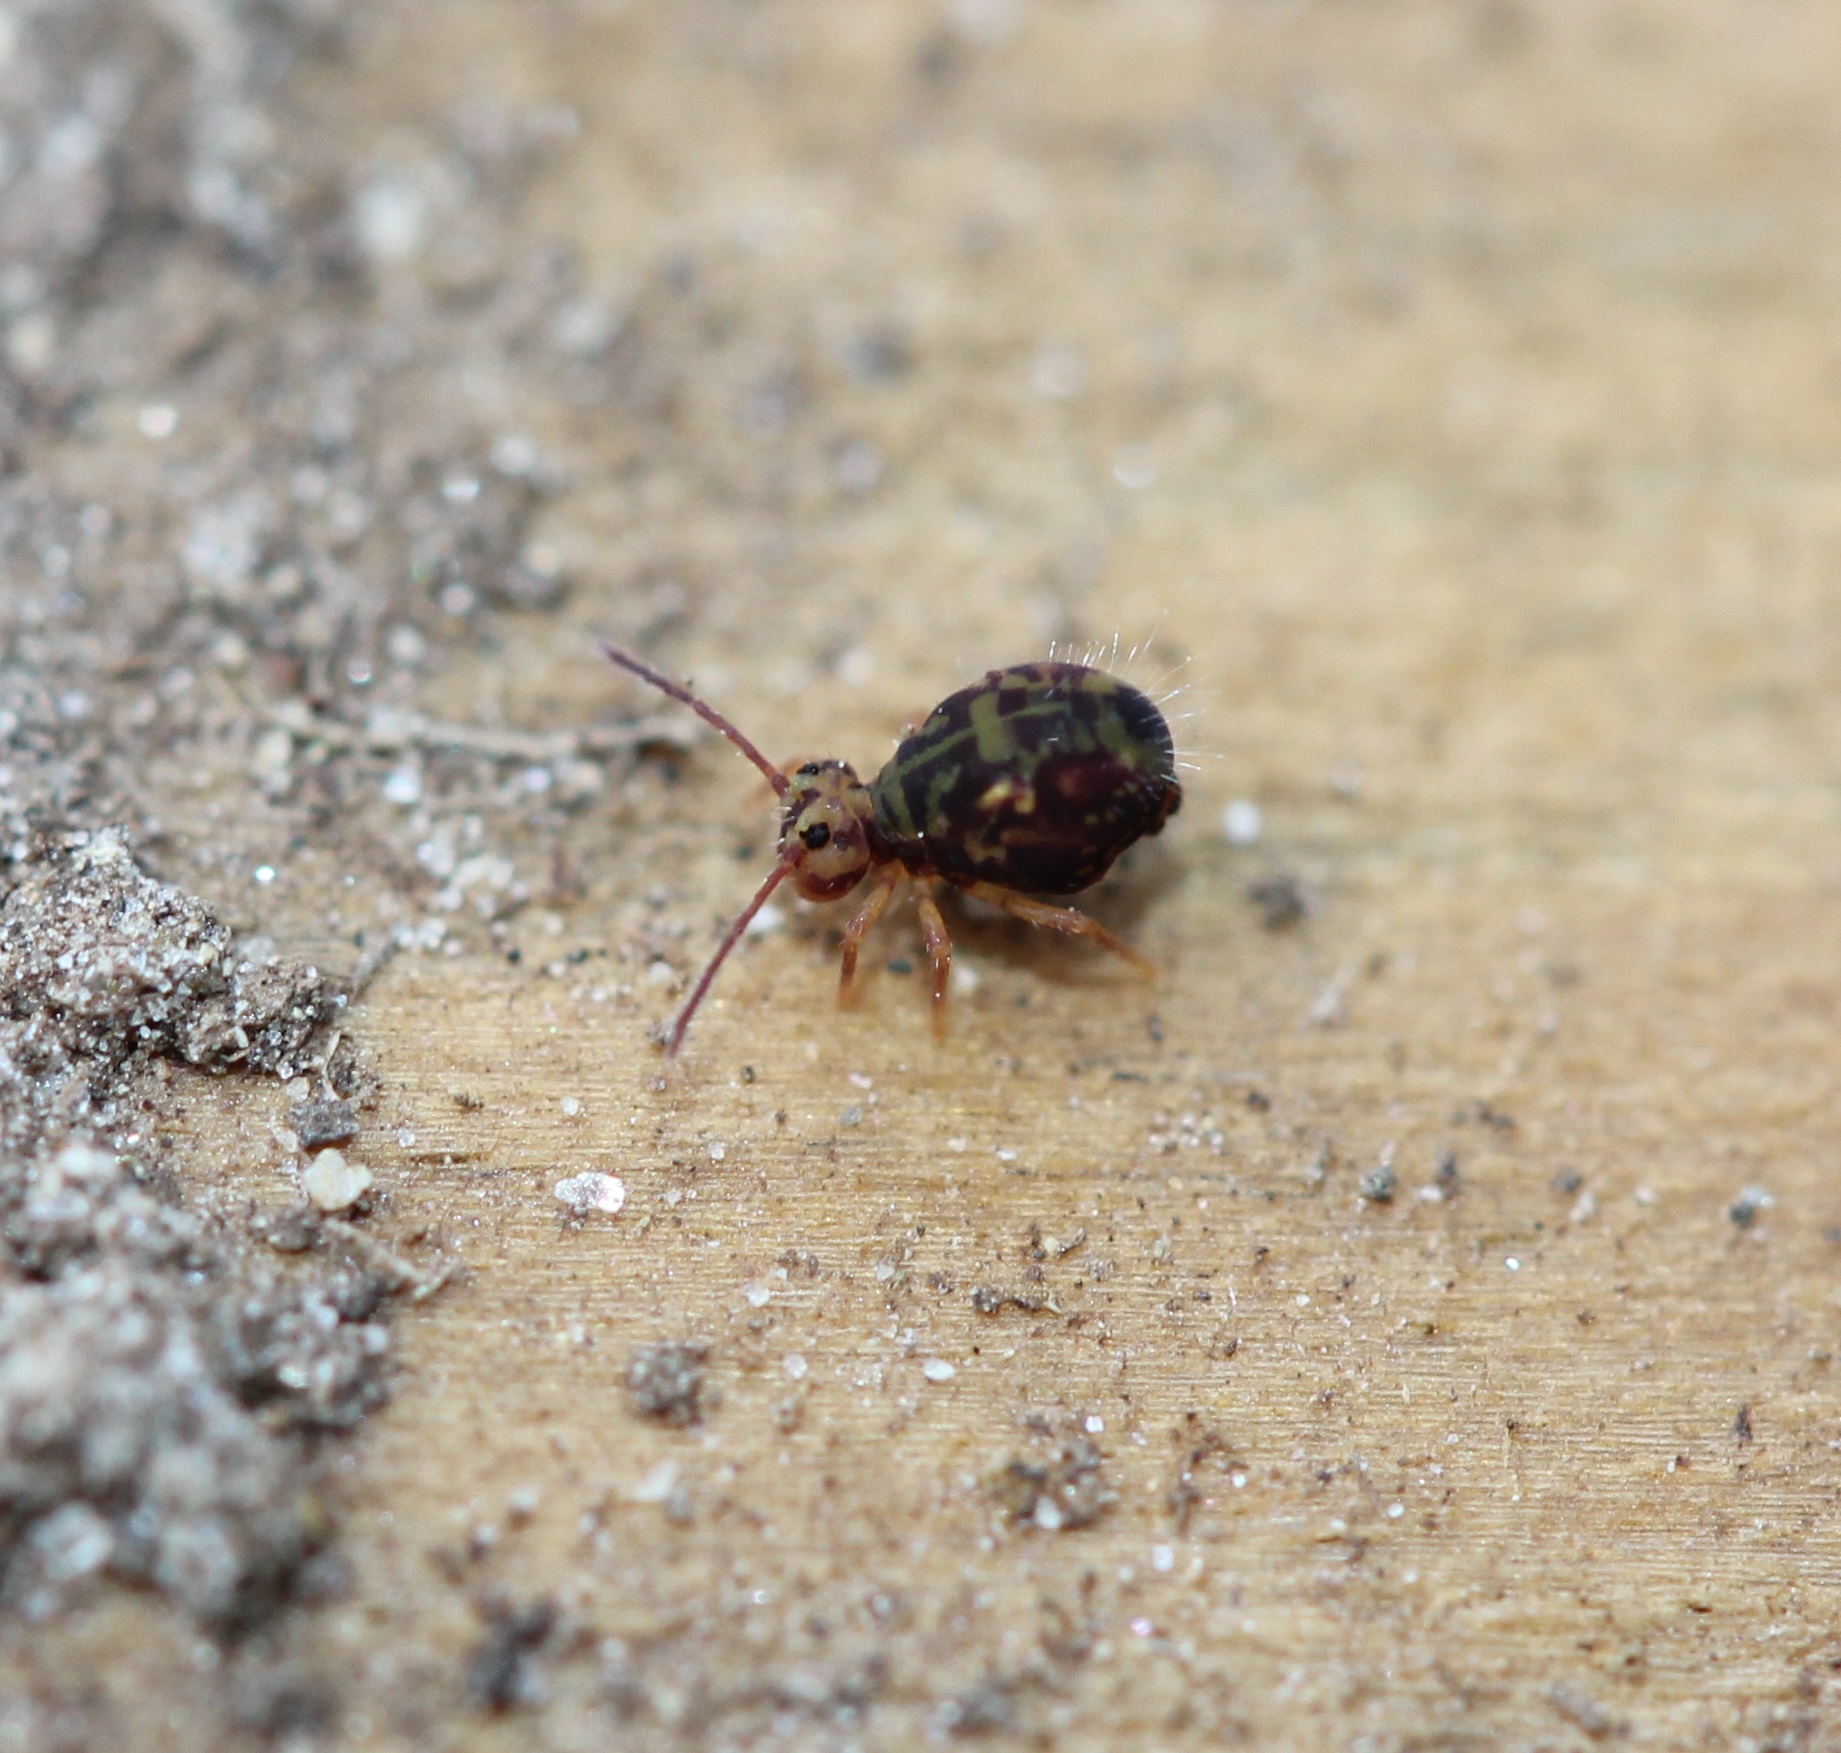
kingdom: Animalia
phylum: Arthropoda
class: Collembola
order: Symphypleona
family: Dicyrtomidae
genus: Dicyrtomina
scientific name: Dicyrtomina minuta
